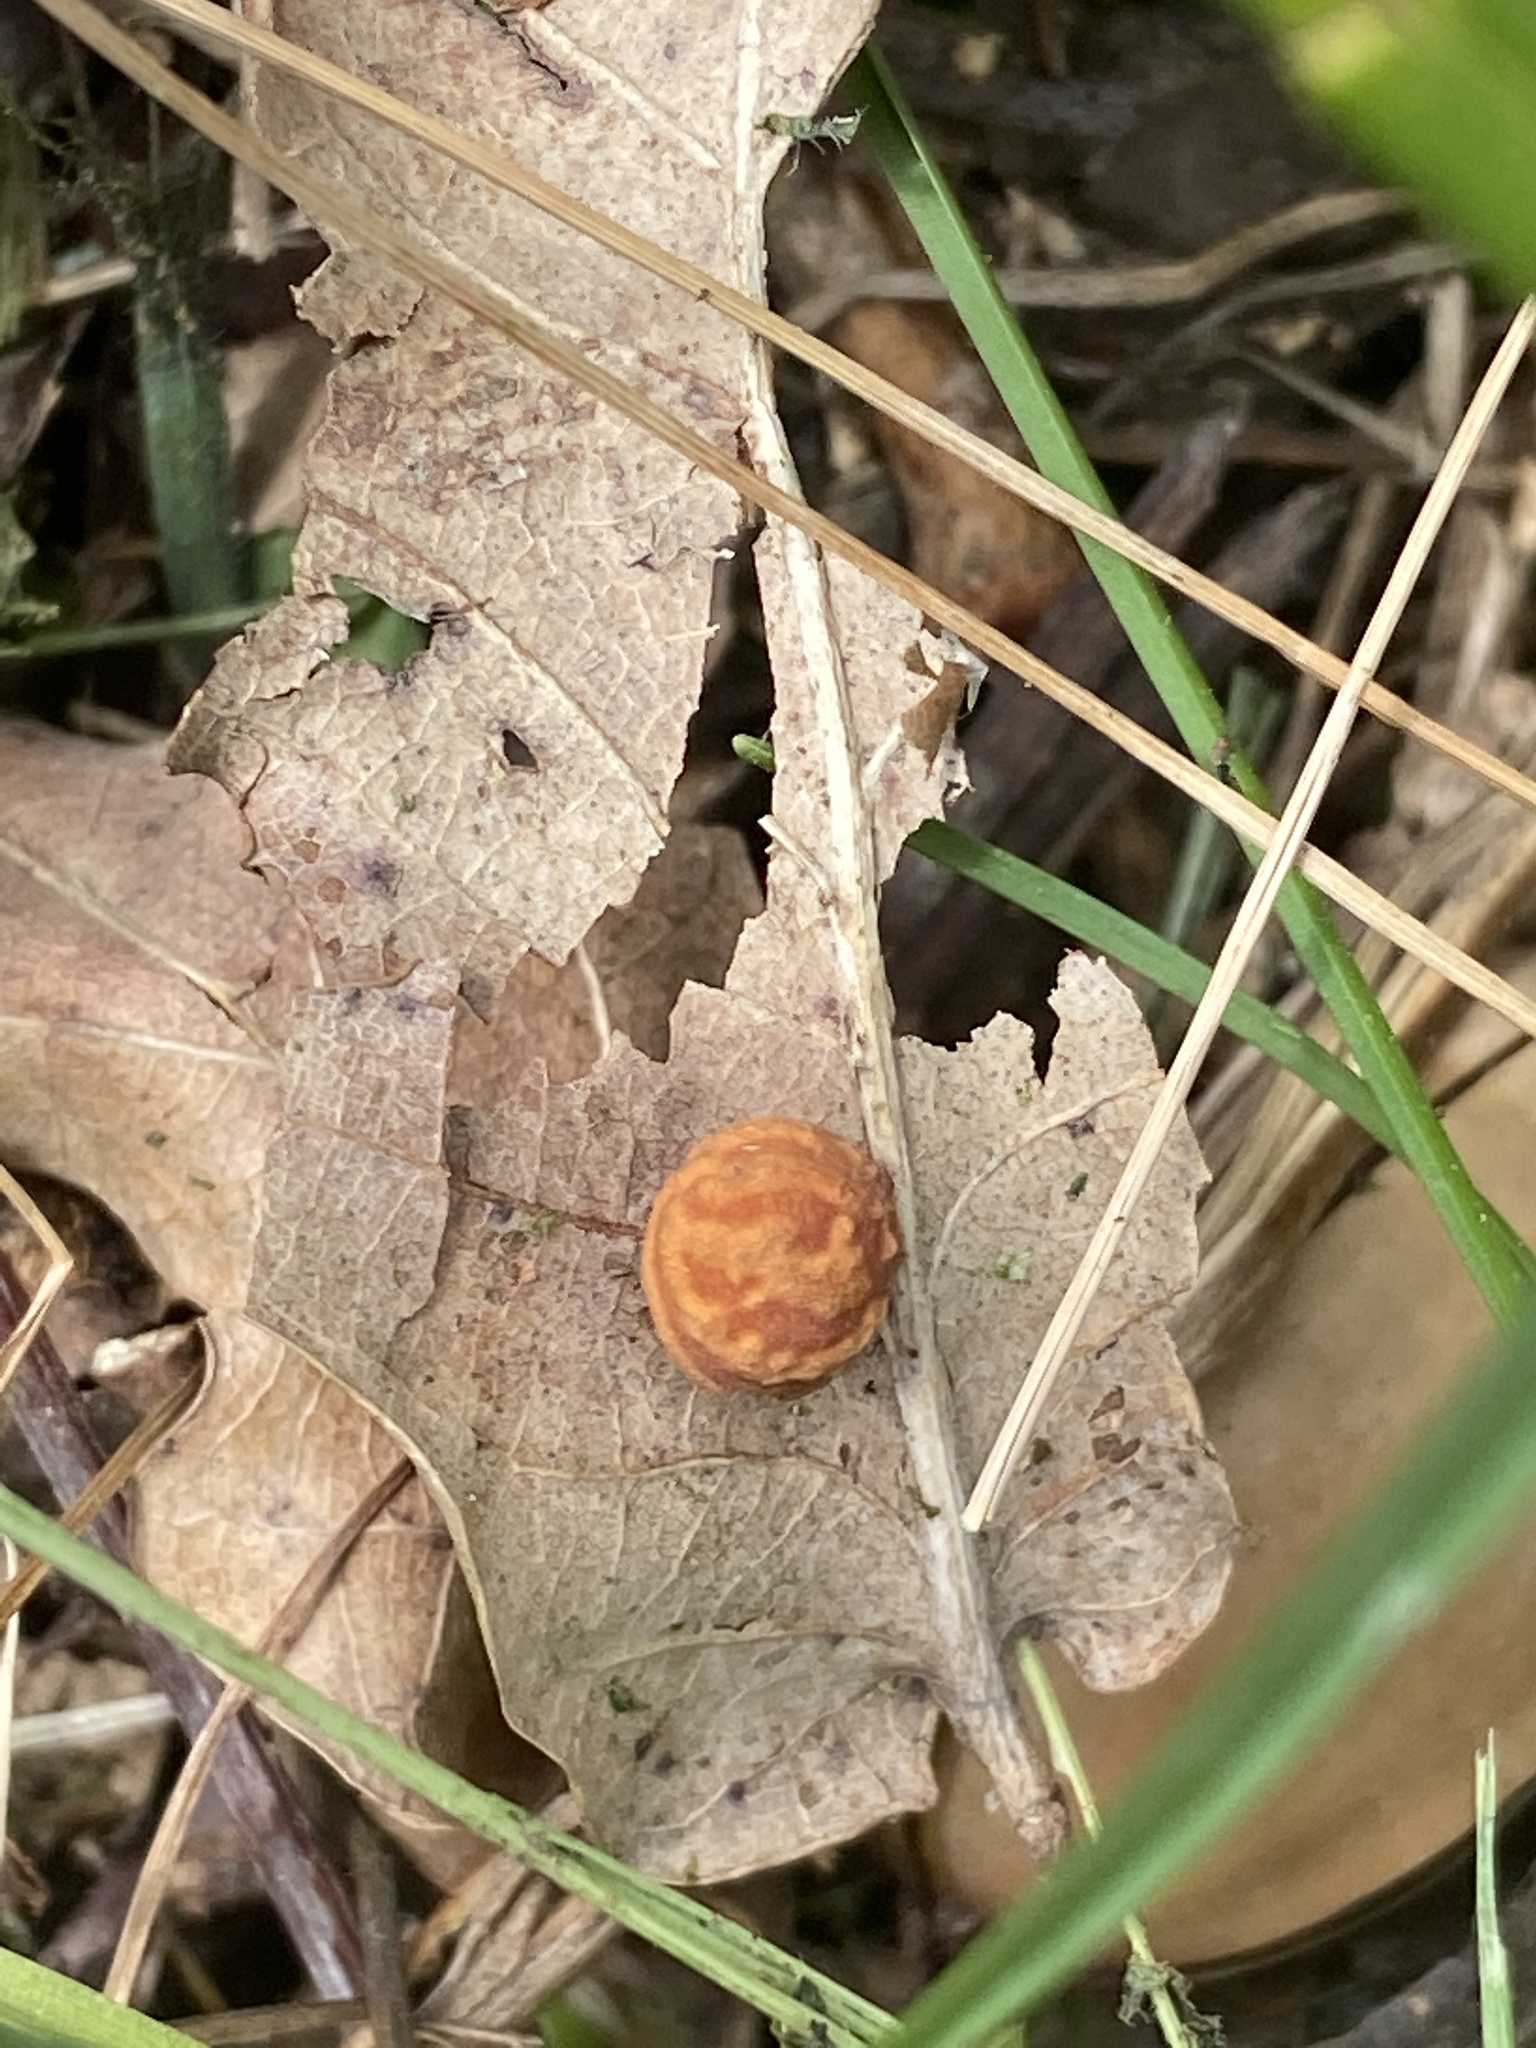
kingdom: Animalia
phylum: Arthropoda
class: Insecta
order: Hymenoptera
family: Cynipidae
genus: Cynips
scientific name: Cynips longiventris
